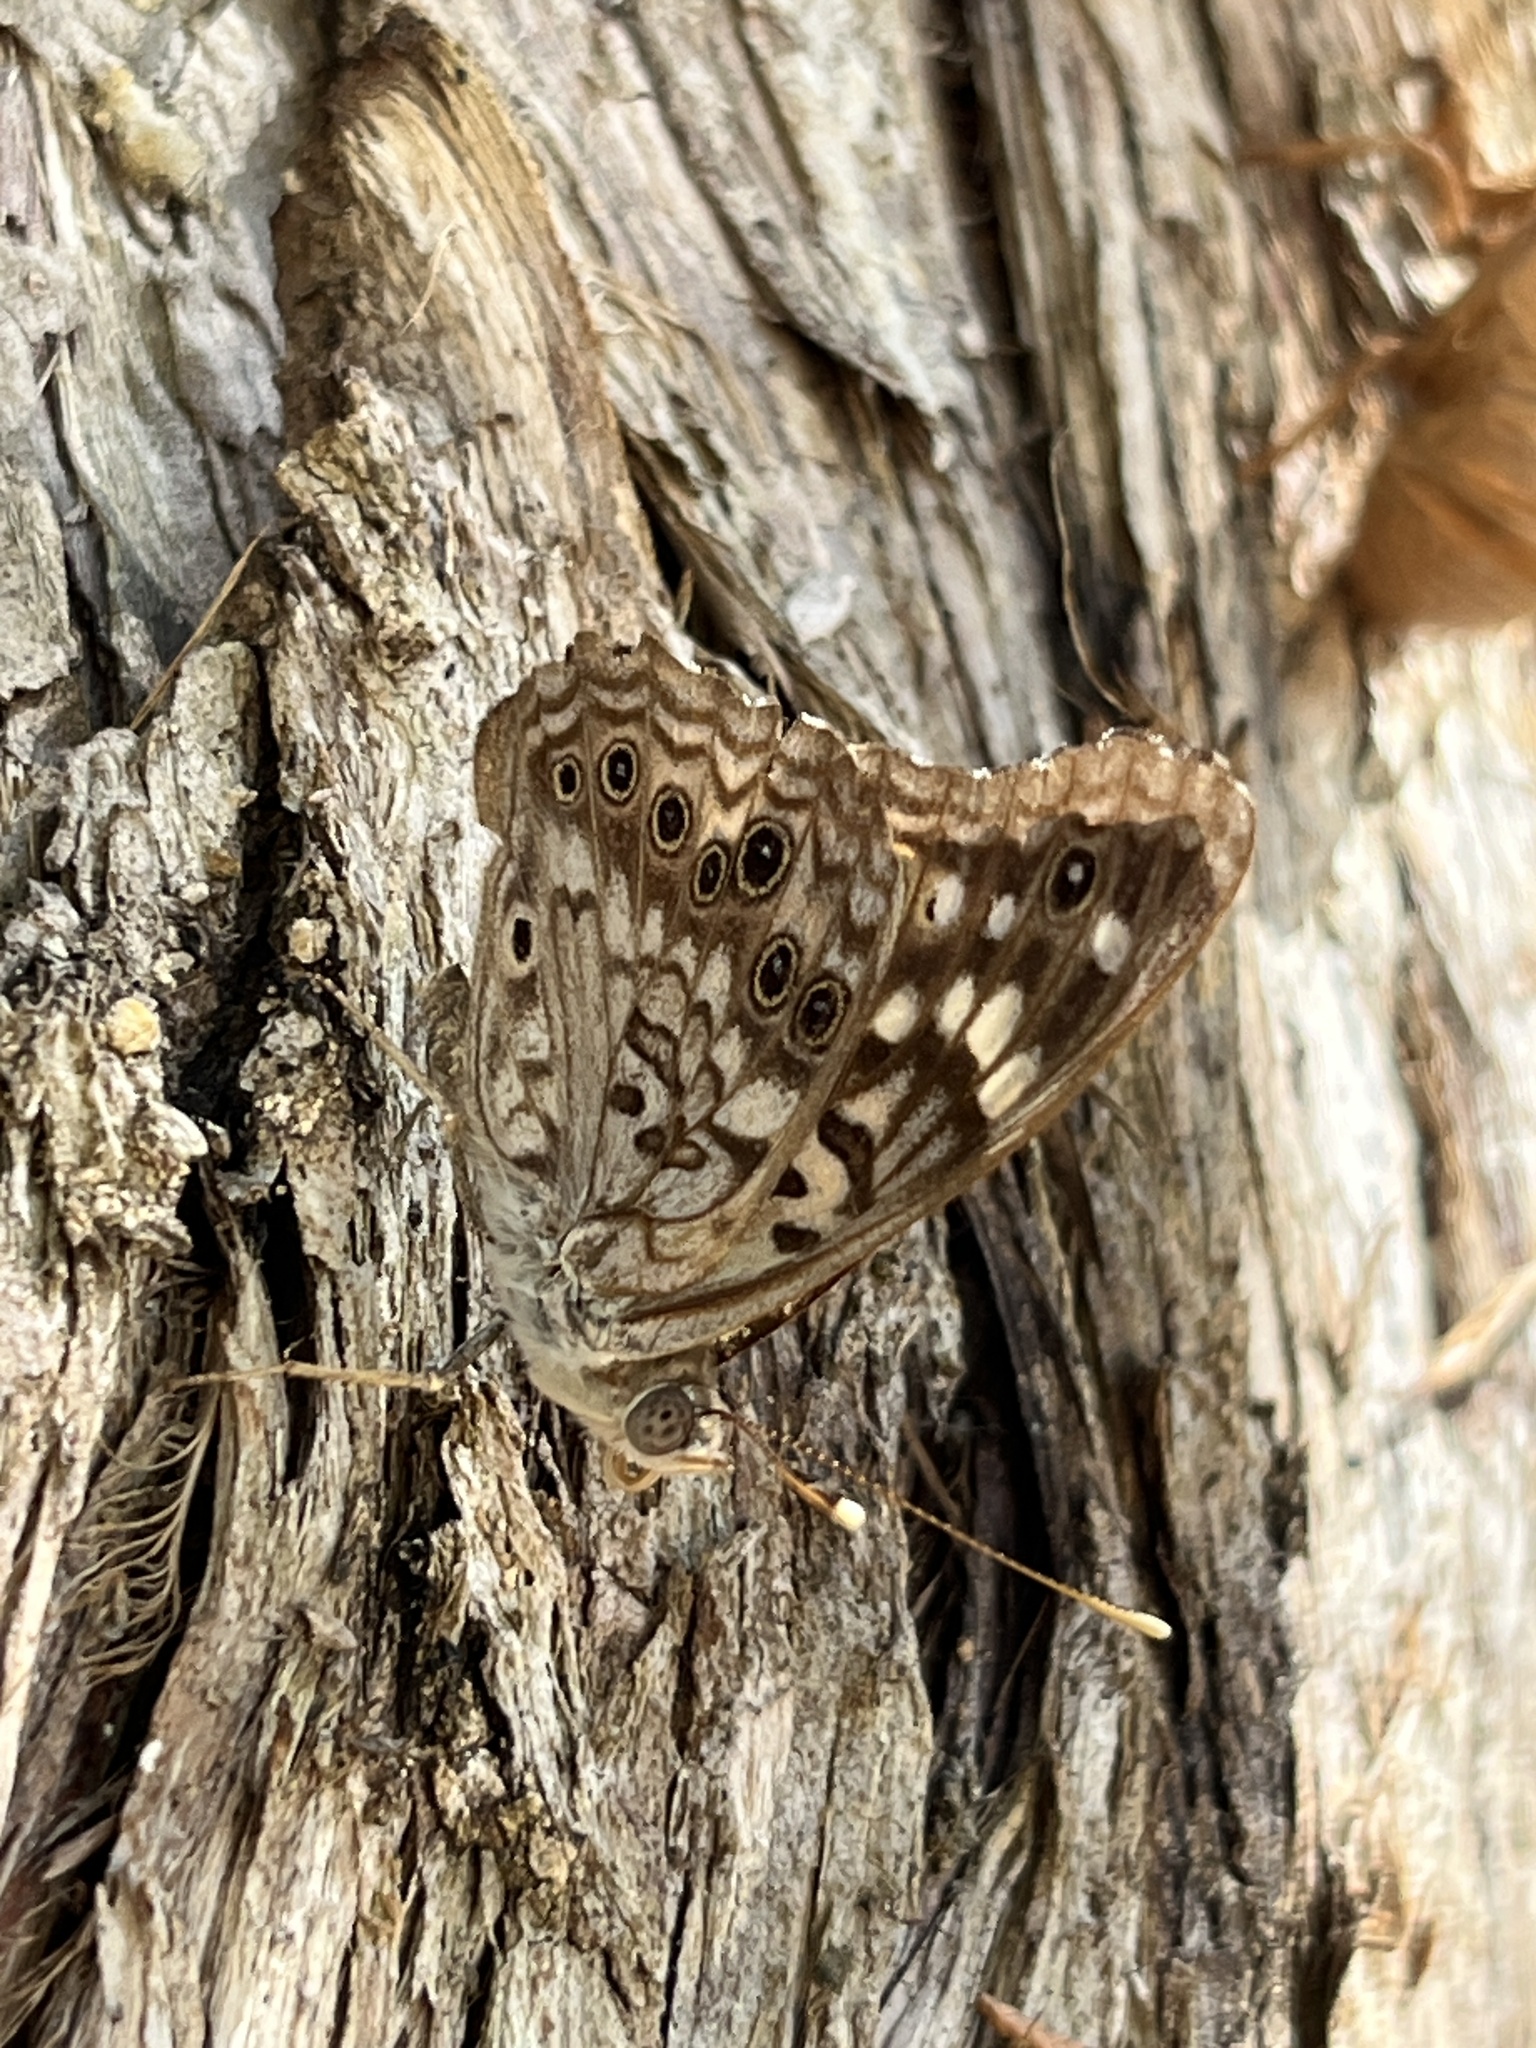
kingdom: Animalia
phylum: Arthropoda
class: Insecta
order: Lepidoptera
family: Nymphalidae
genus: Asterocampa
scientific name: Asterocampa celtis
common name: Hackberry emperor
